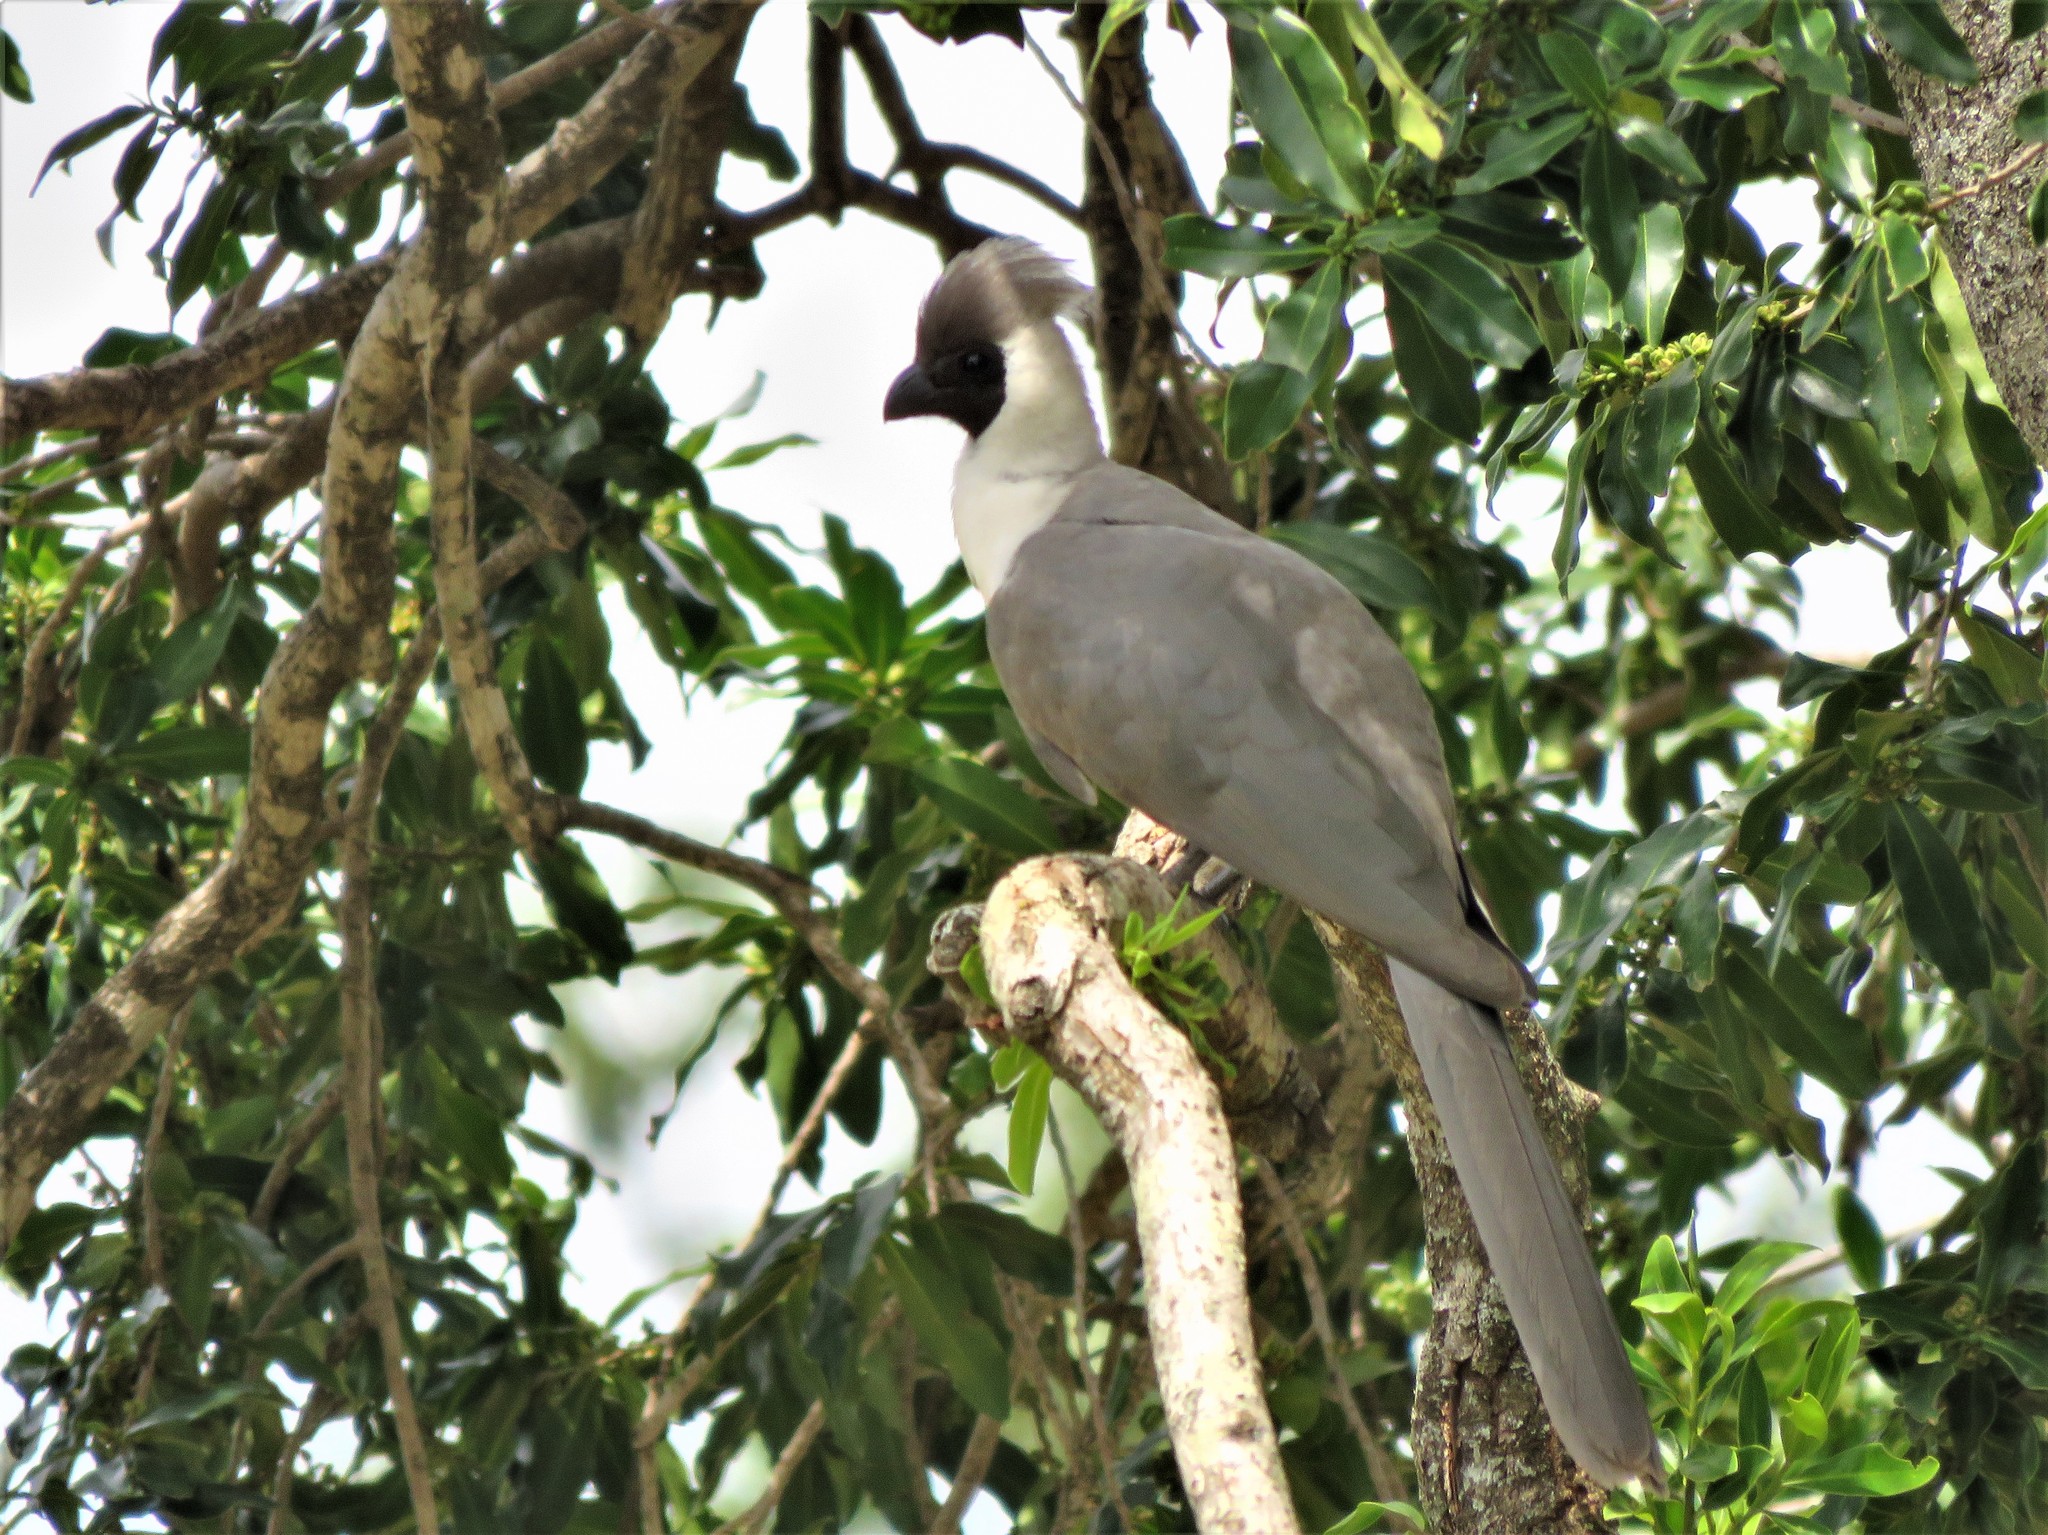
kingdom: Animalia
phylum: Chordata
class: Aves
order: Musophagiformes
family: Musophagidae
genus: Corythaixoides
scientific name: Corythaixoides personatus
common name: Bare-faced go-away-bird
